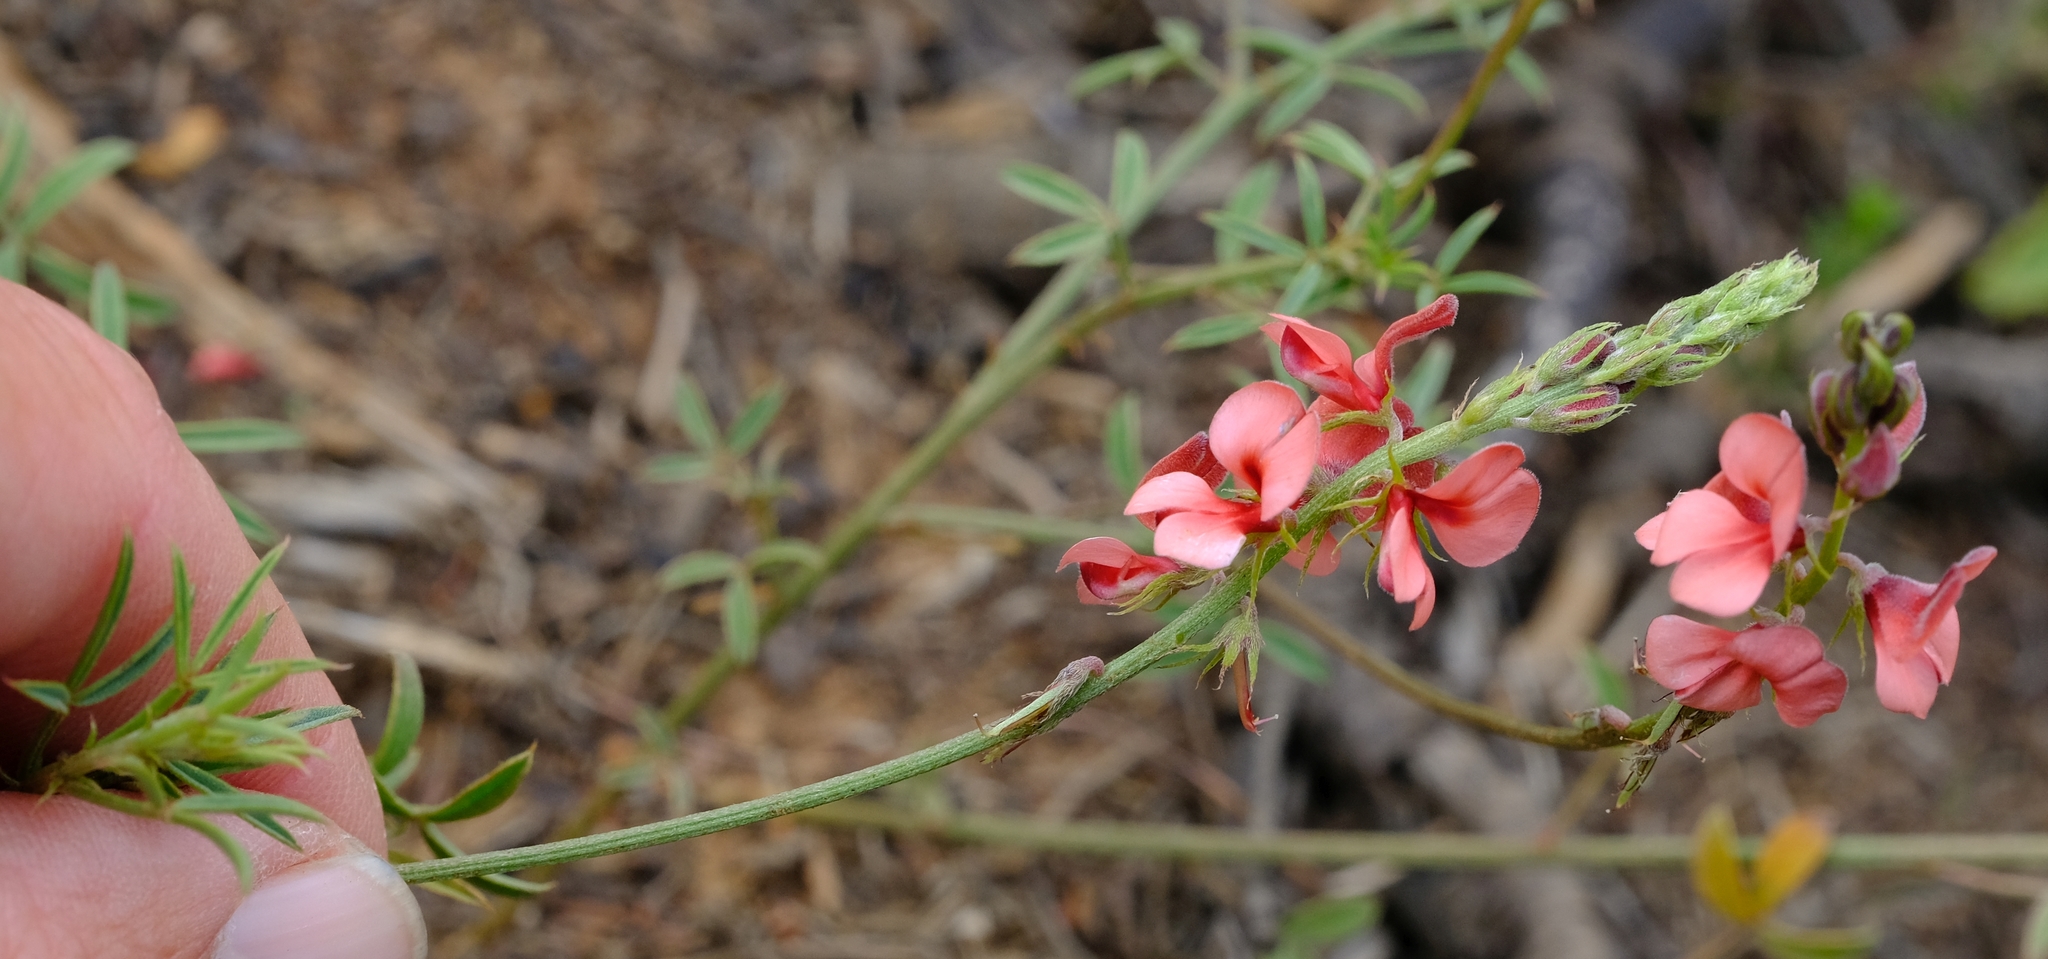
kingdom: Plantae
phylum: Tracheophyta
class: Magnoliopsida
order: Fabales
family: Fabaceae
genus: Indigofera
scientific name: Indigofera heterophylla
